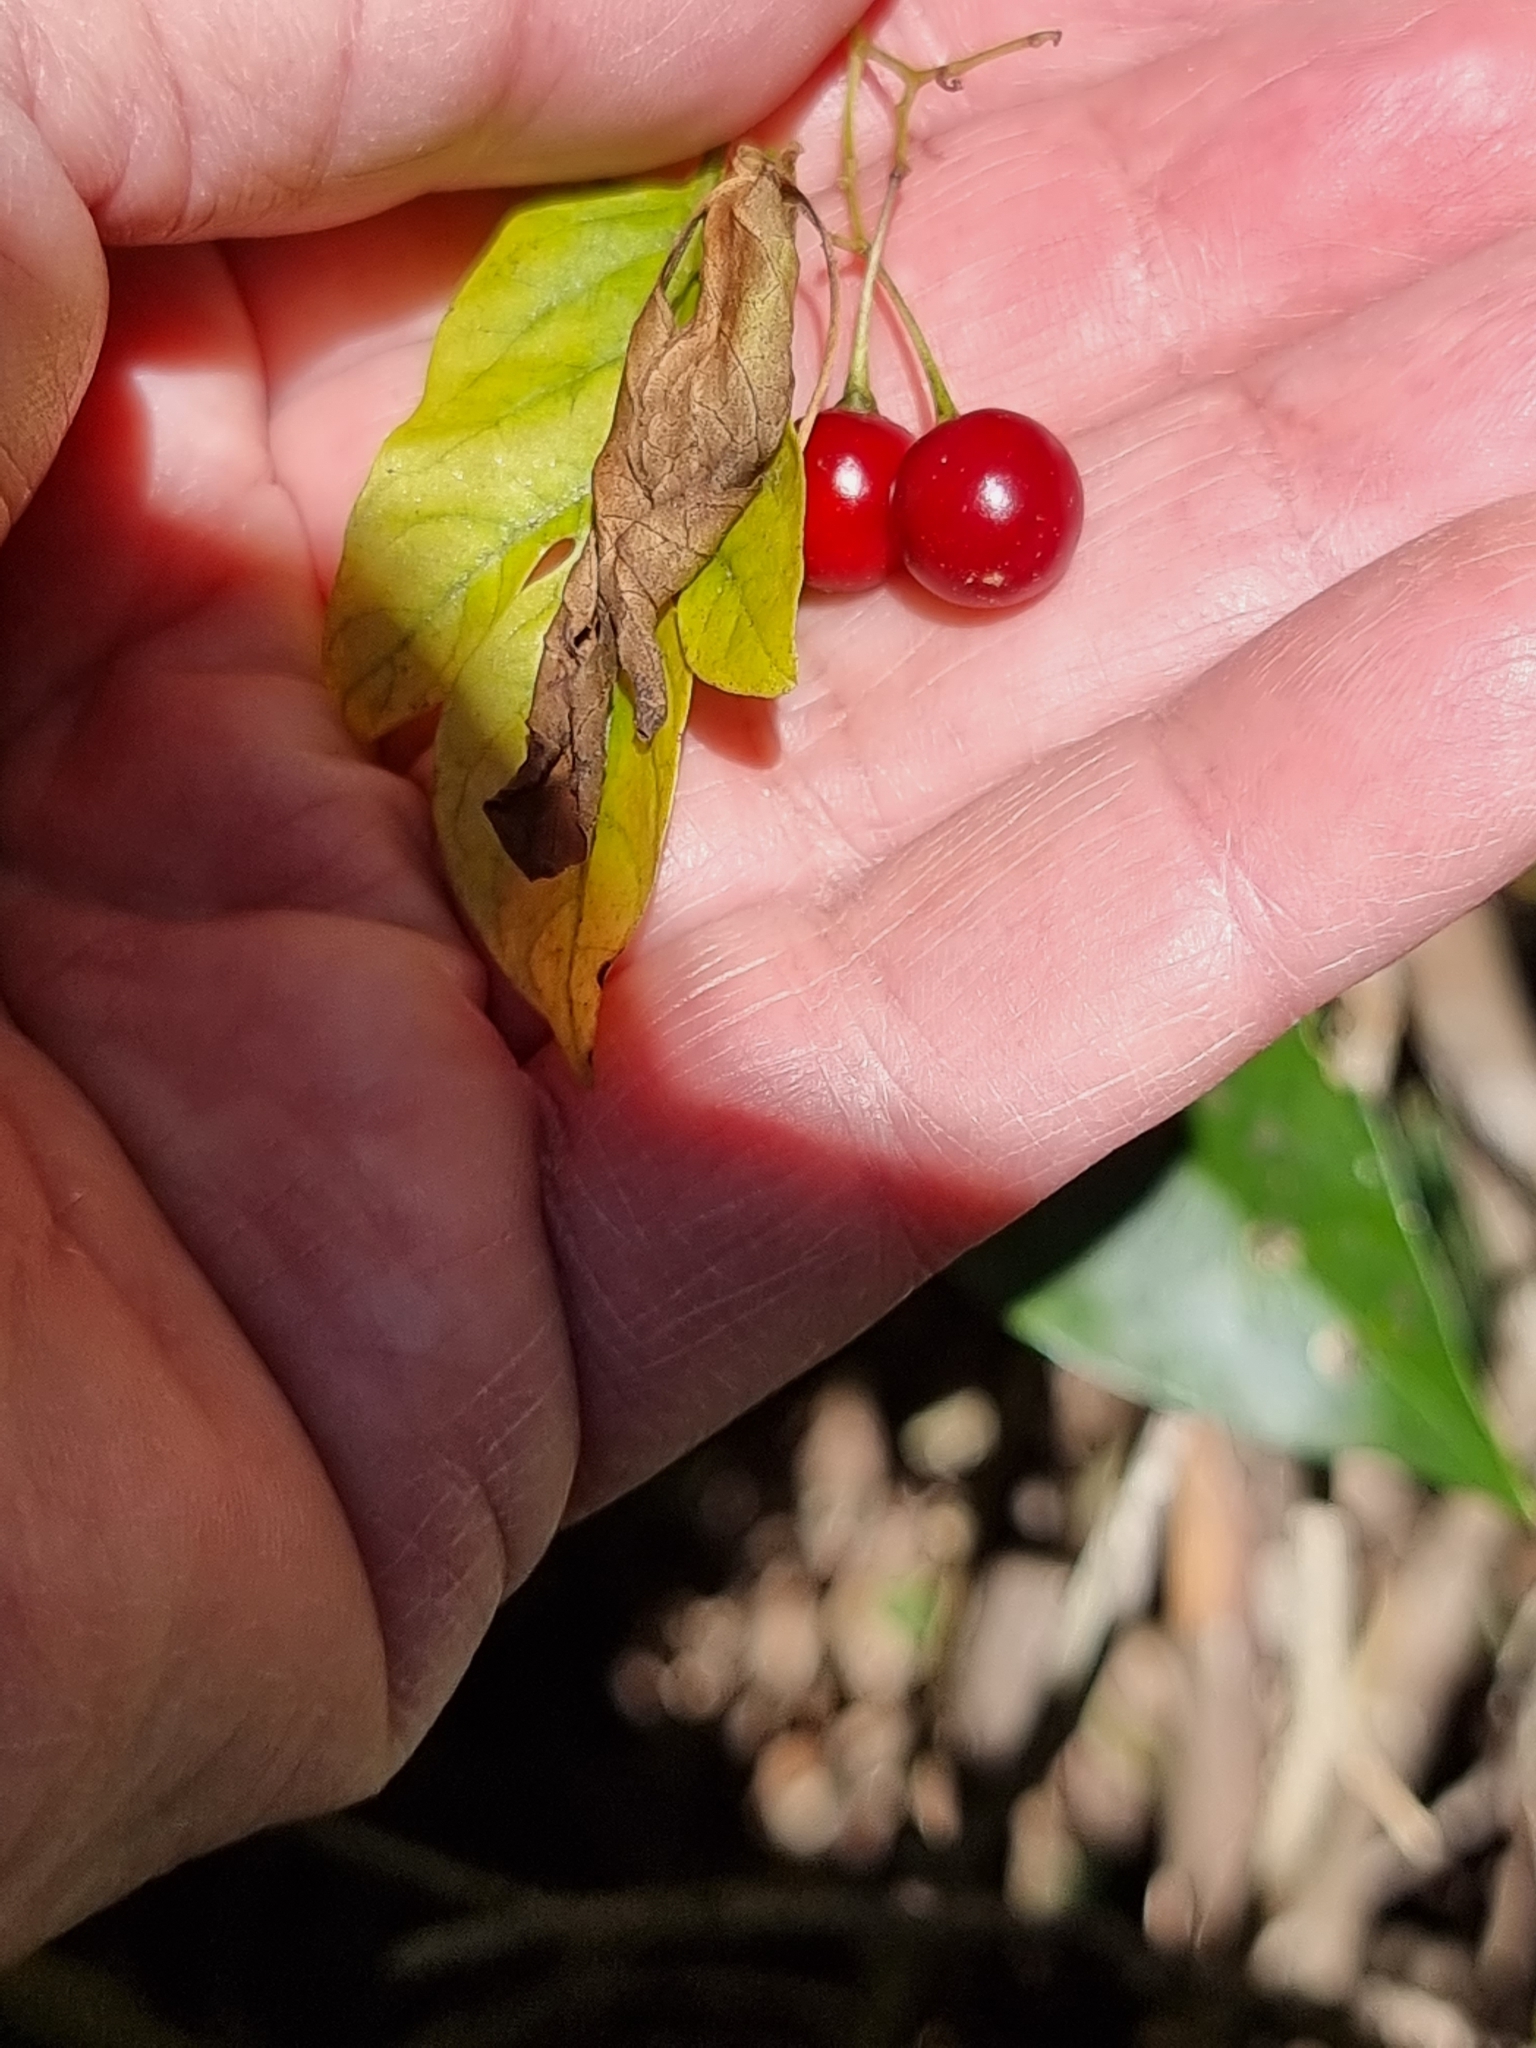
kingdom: Plantae
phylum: Tracheophyta
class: Magnoliopsida
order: Solanales
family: Solanaceae
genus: Solanum
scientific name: Solanum seaforthianum
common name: Brazilian nightshade
